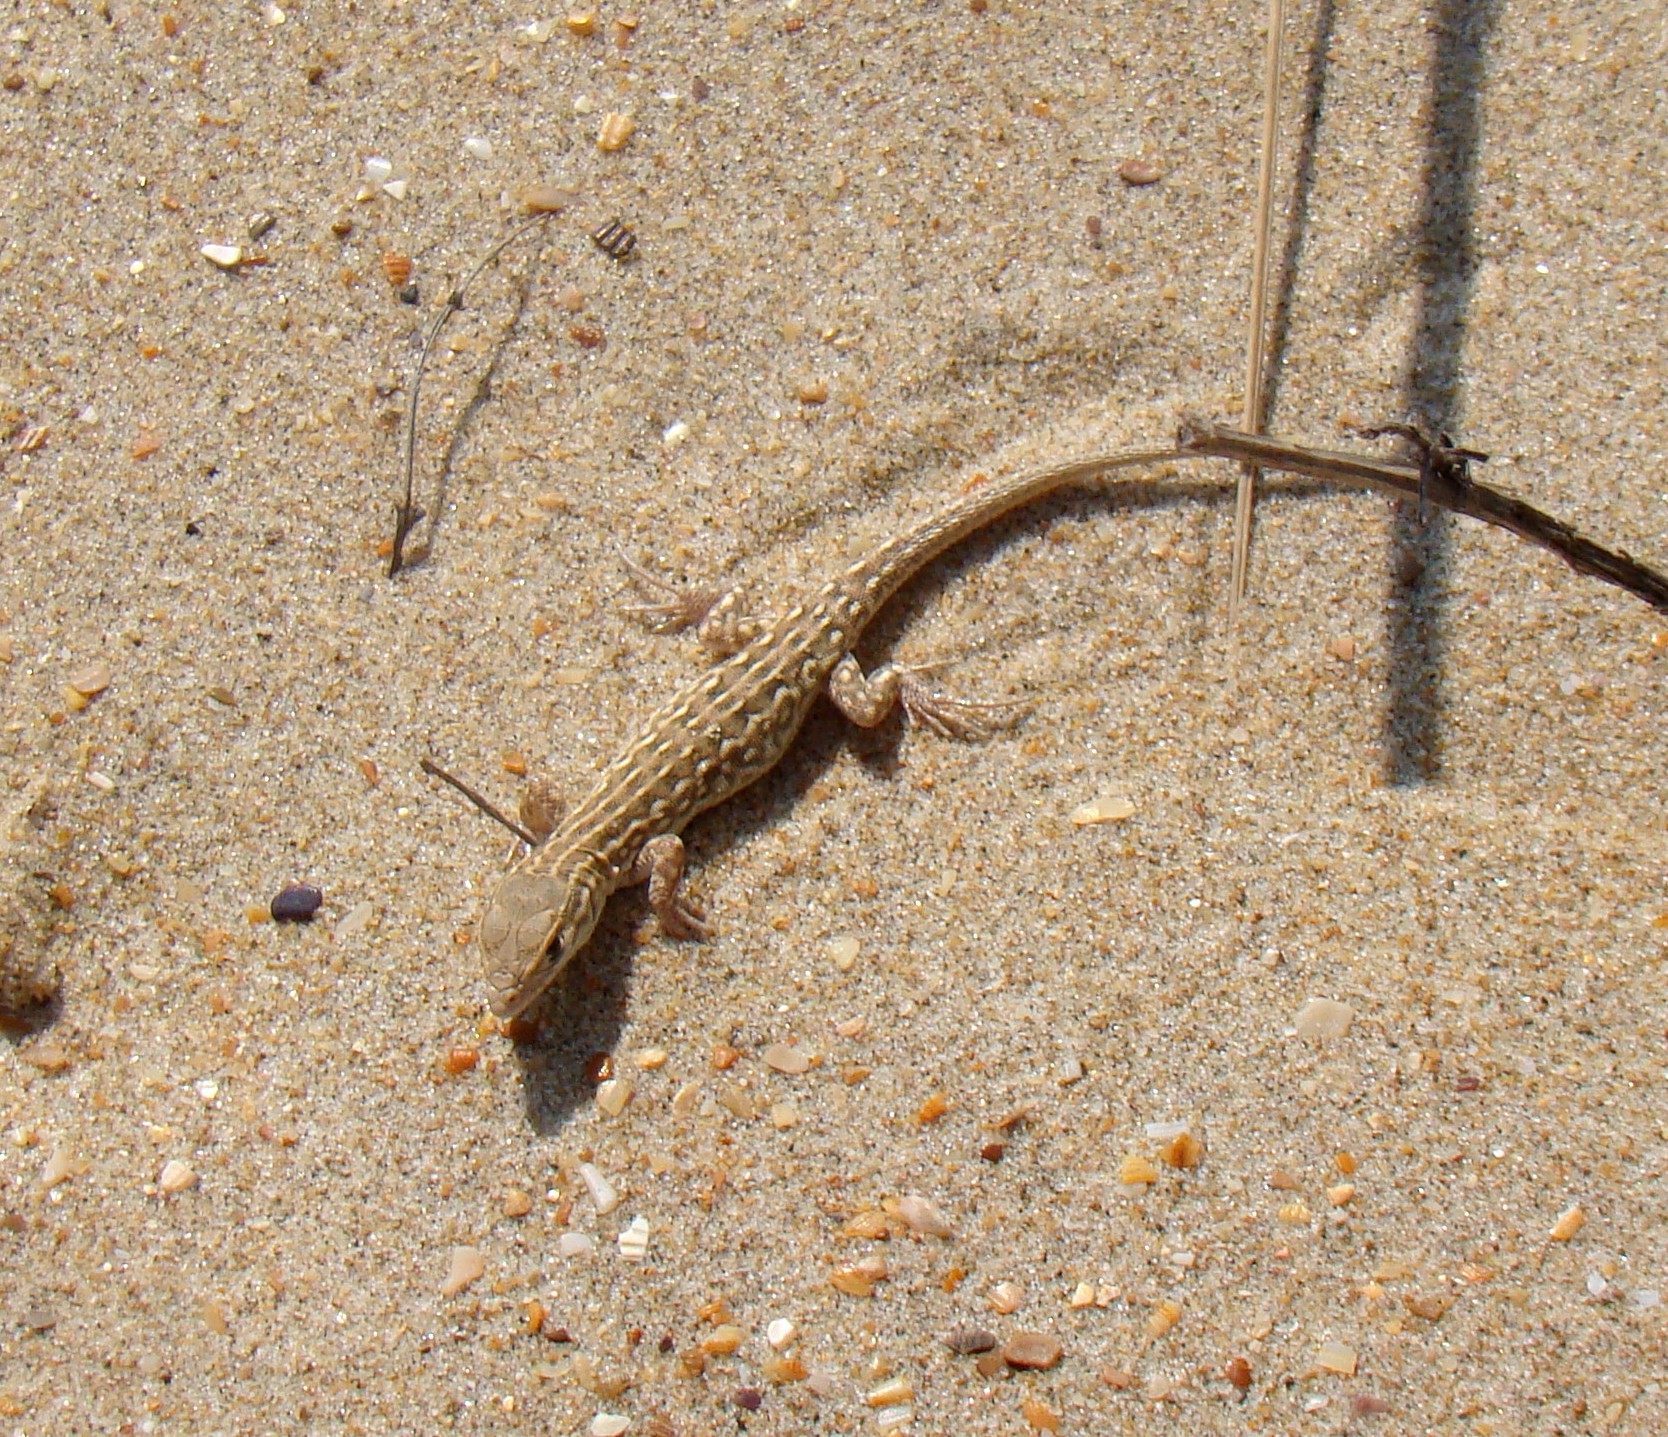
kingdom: Animalia
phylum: Chordata
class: Squamata
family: Lacertidae
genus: Eremias
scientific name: Eremias arguta
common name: Racerunner
